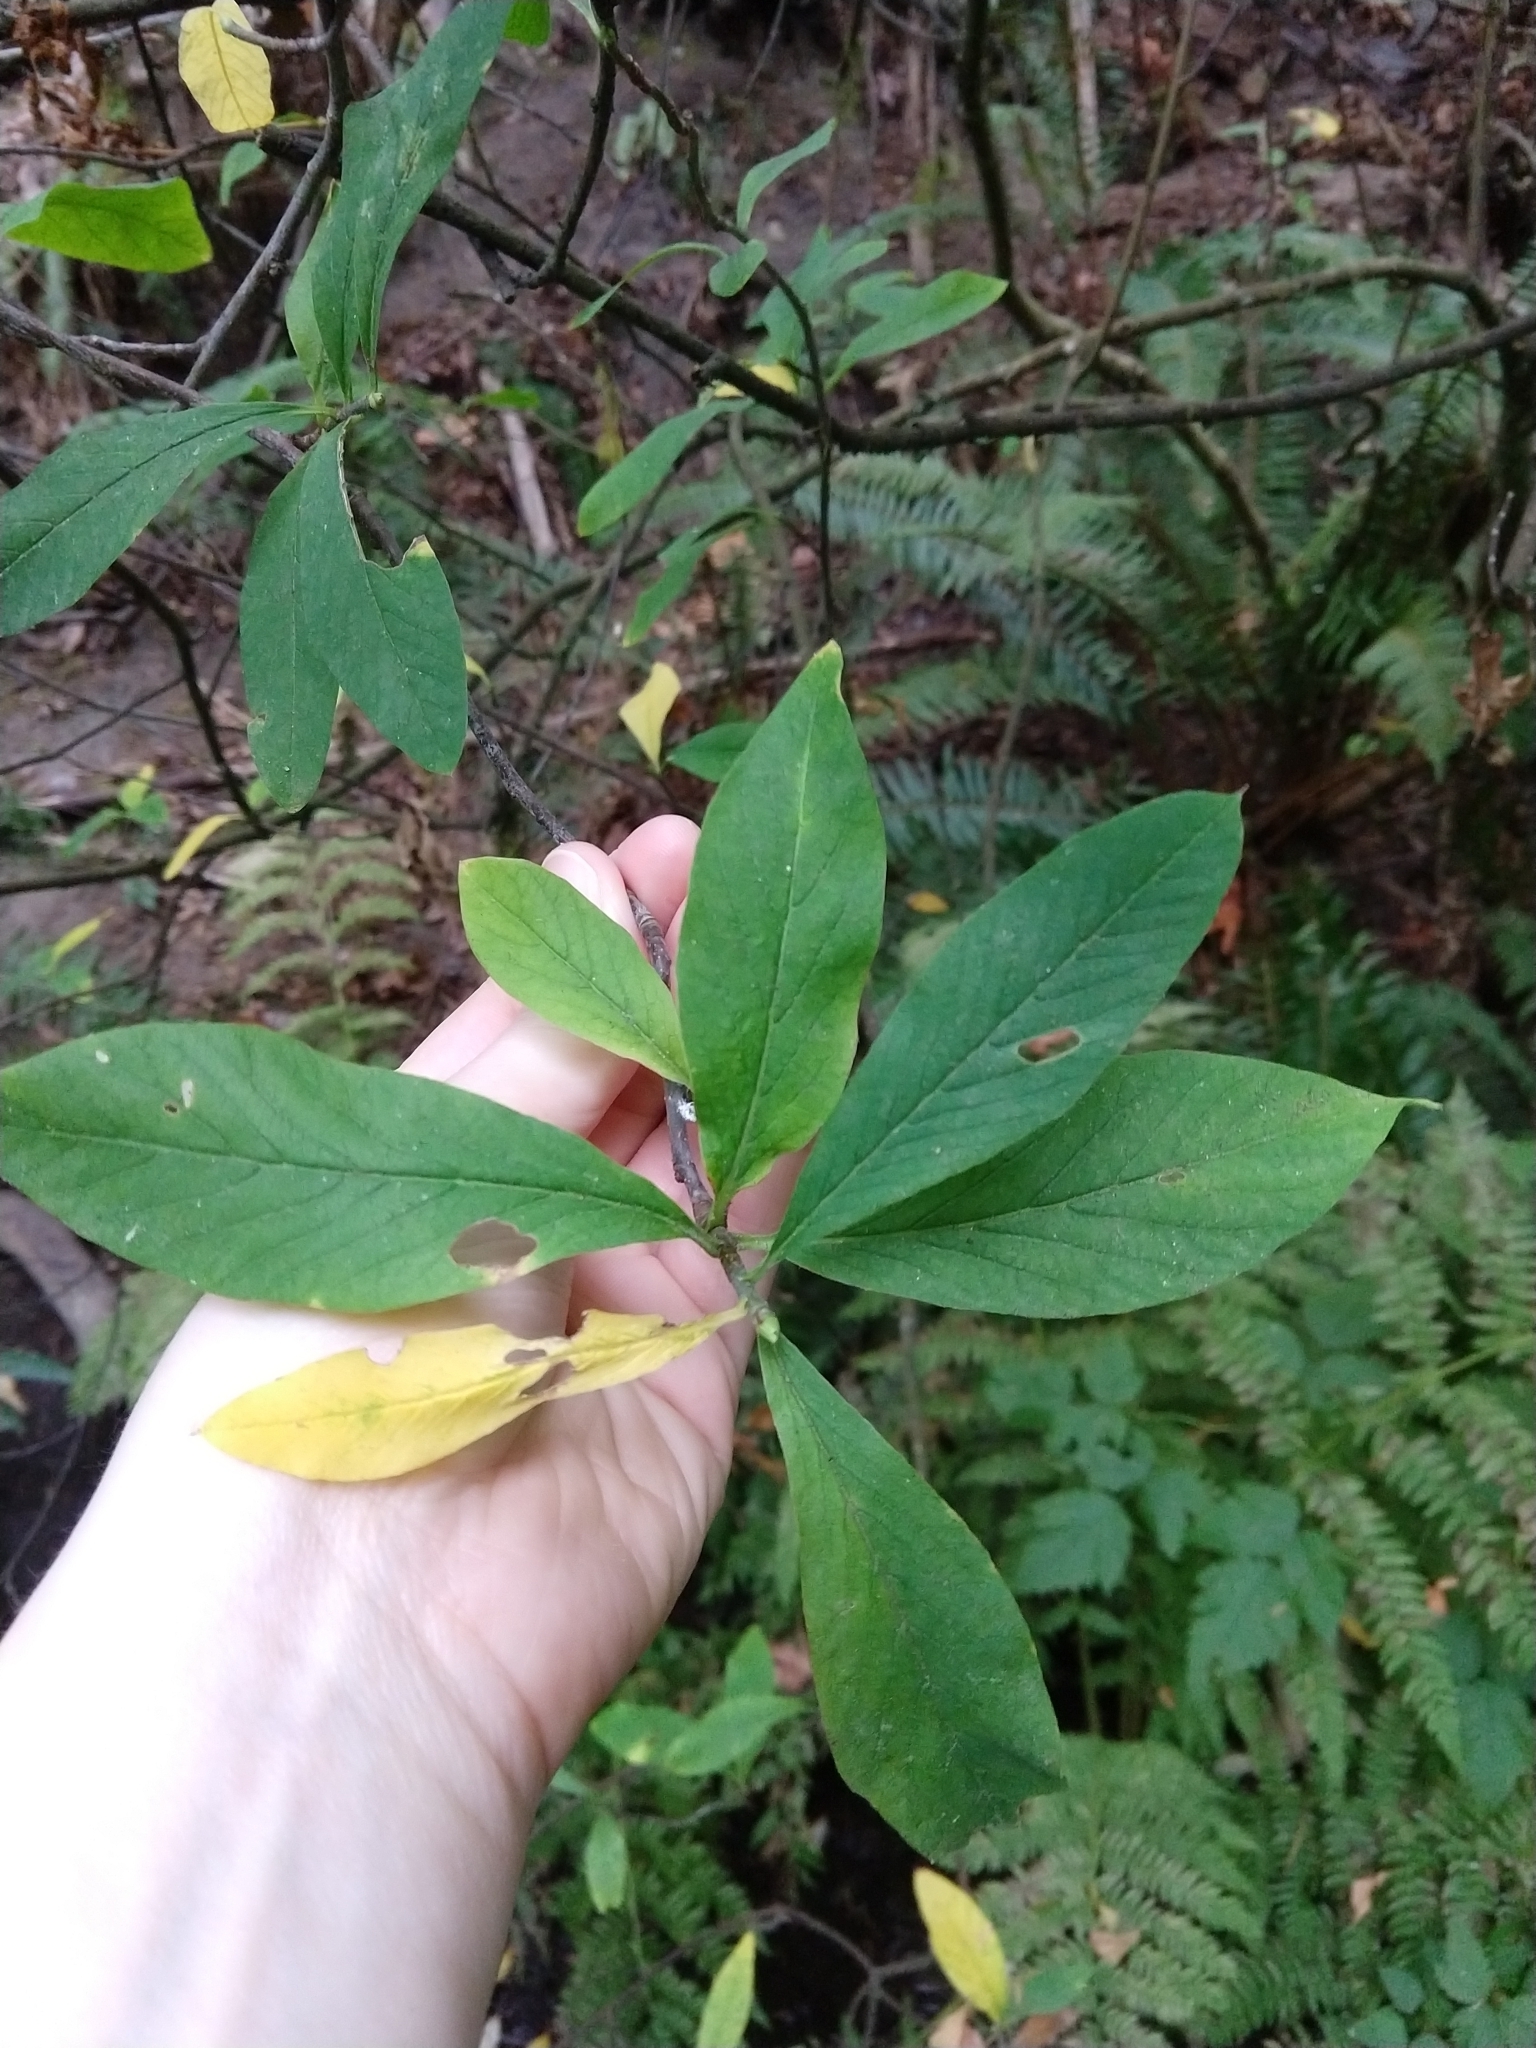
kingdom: Plantae
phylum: Tracheophyta
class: Magnoliopsida
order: Rosales
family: Rosaceae
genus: Oemleria
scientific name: Oemleria cerasiformis
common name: Osoberry
